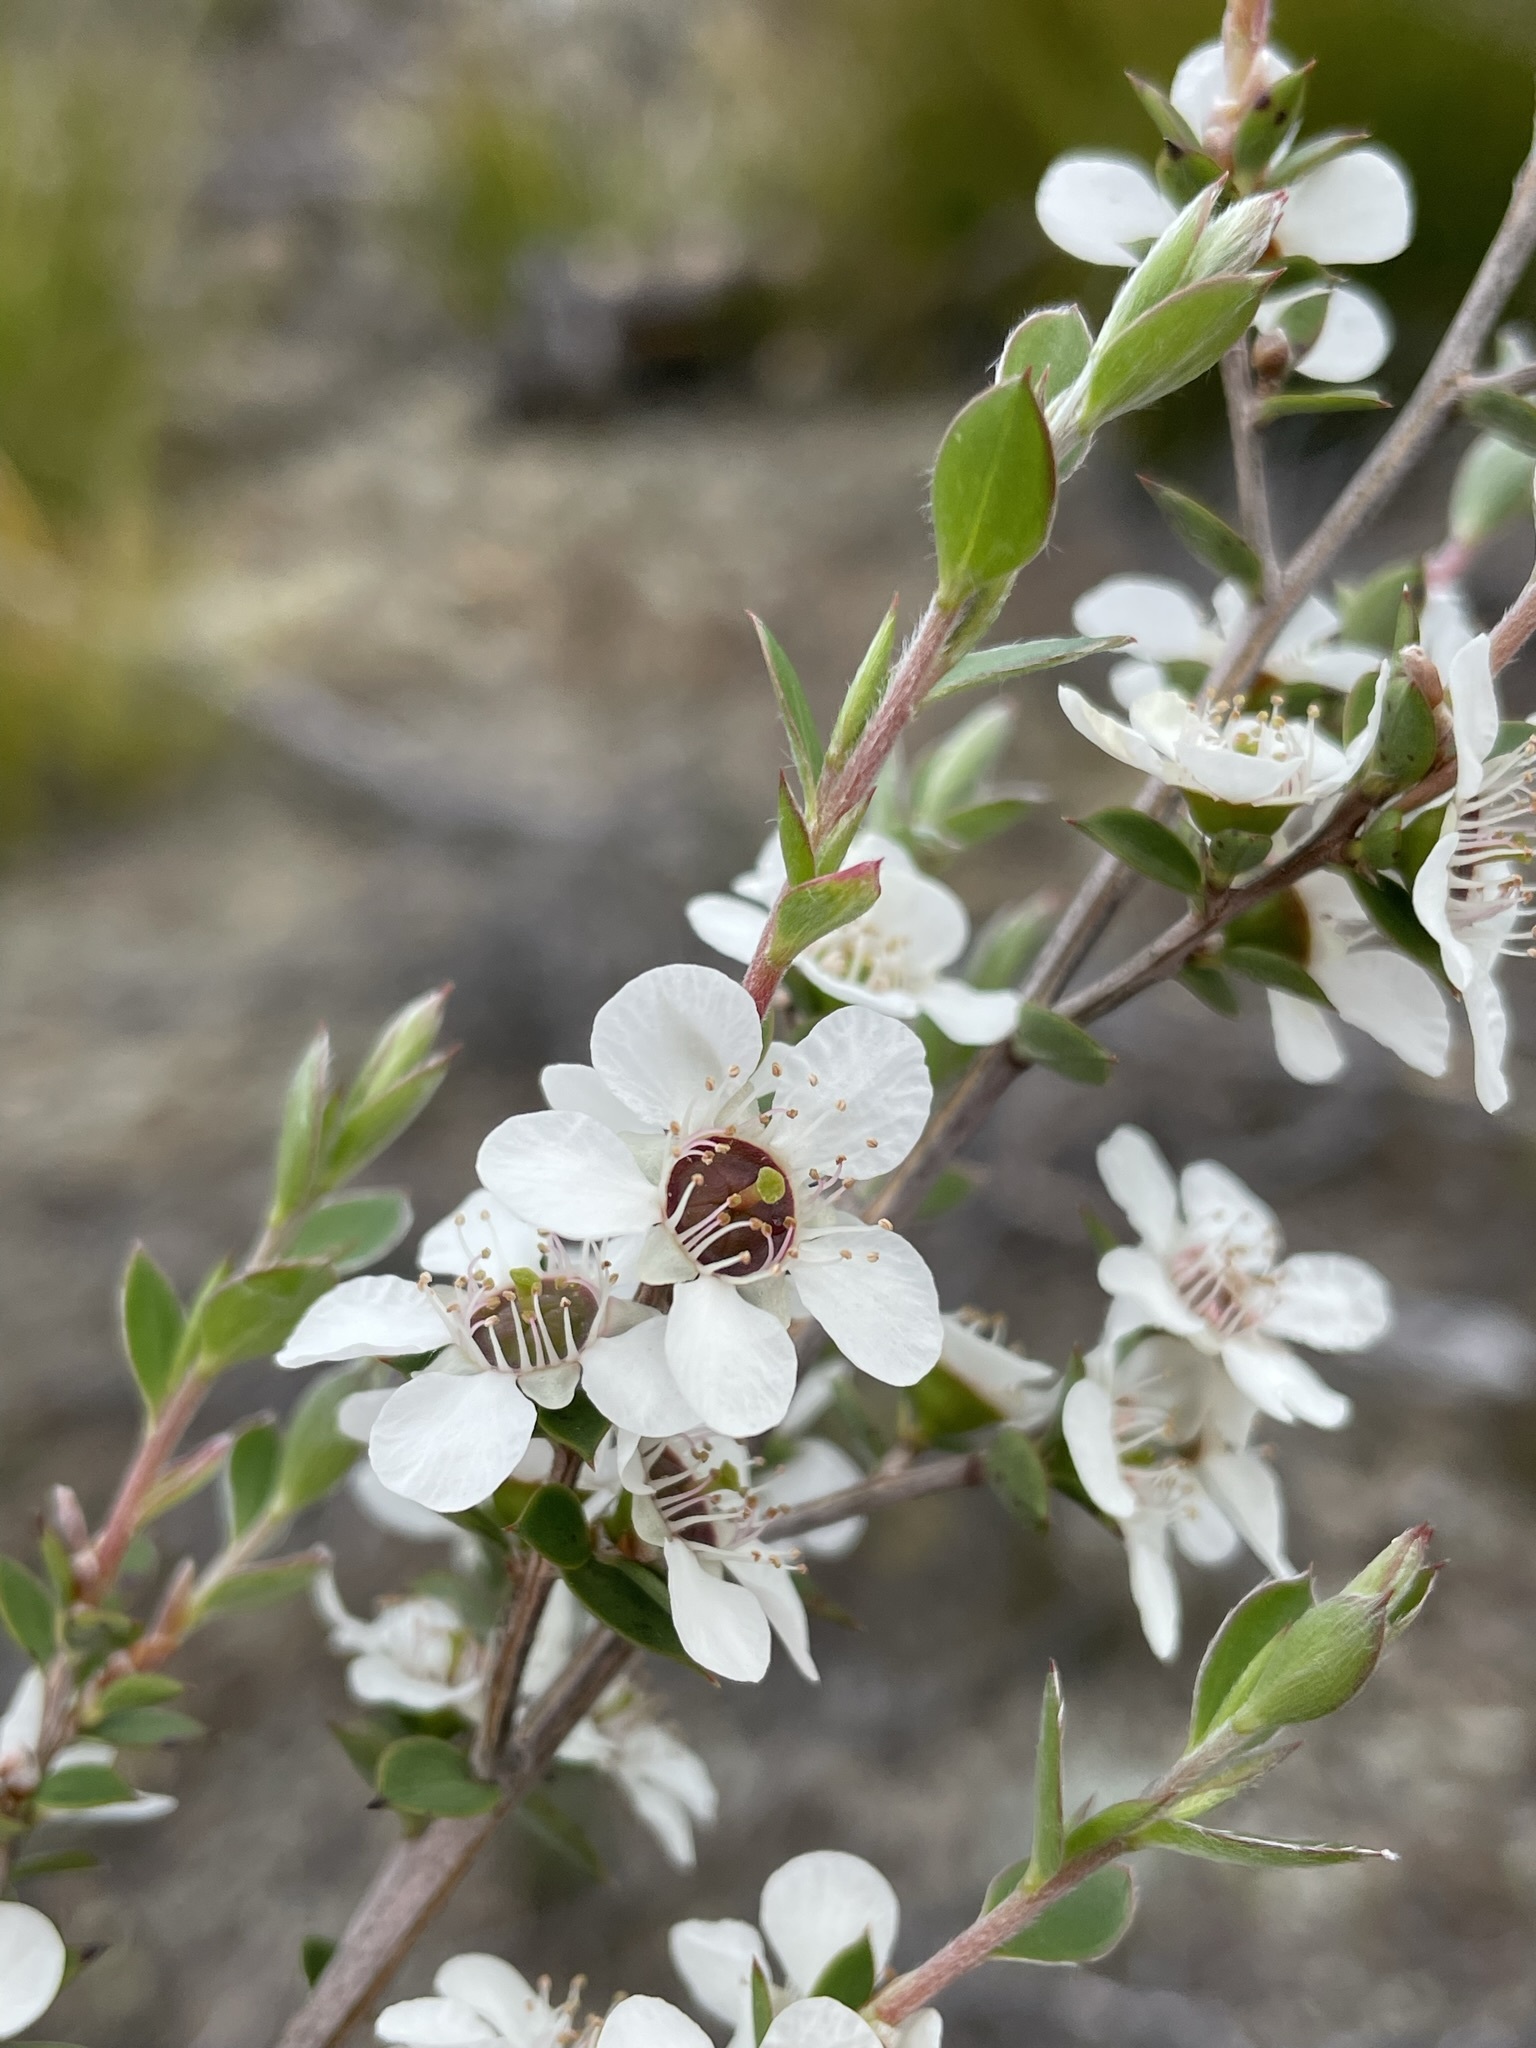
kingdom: Plantae
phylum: Tracheophyta
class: Magnoliopsida
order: Myrtales
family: Myrtaceae
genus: Leptospermum
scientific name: Leptospermum scoparium
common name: Broom tea-tree
